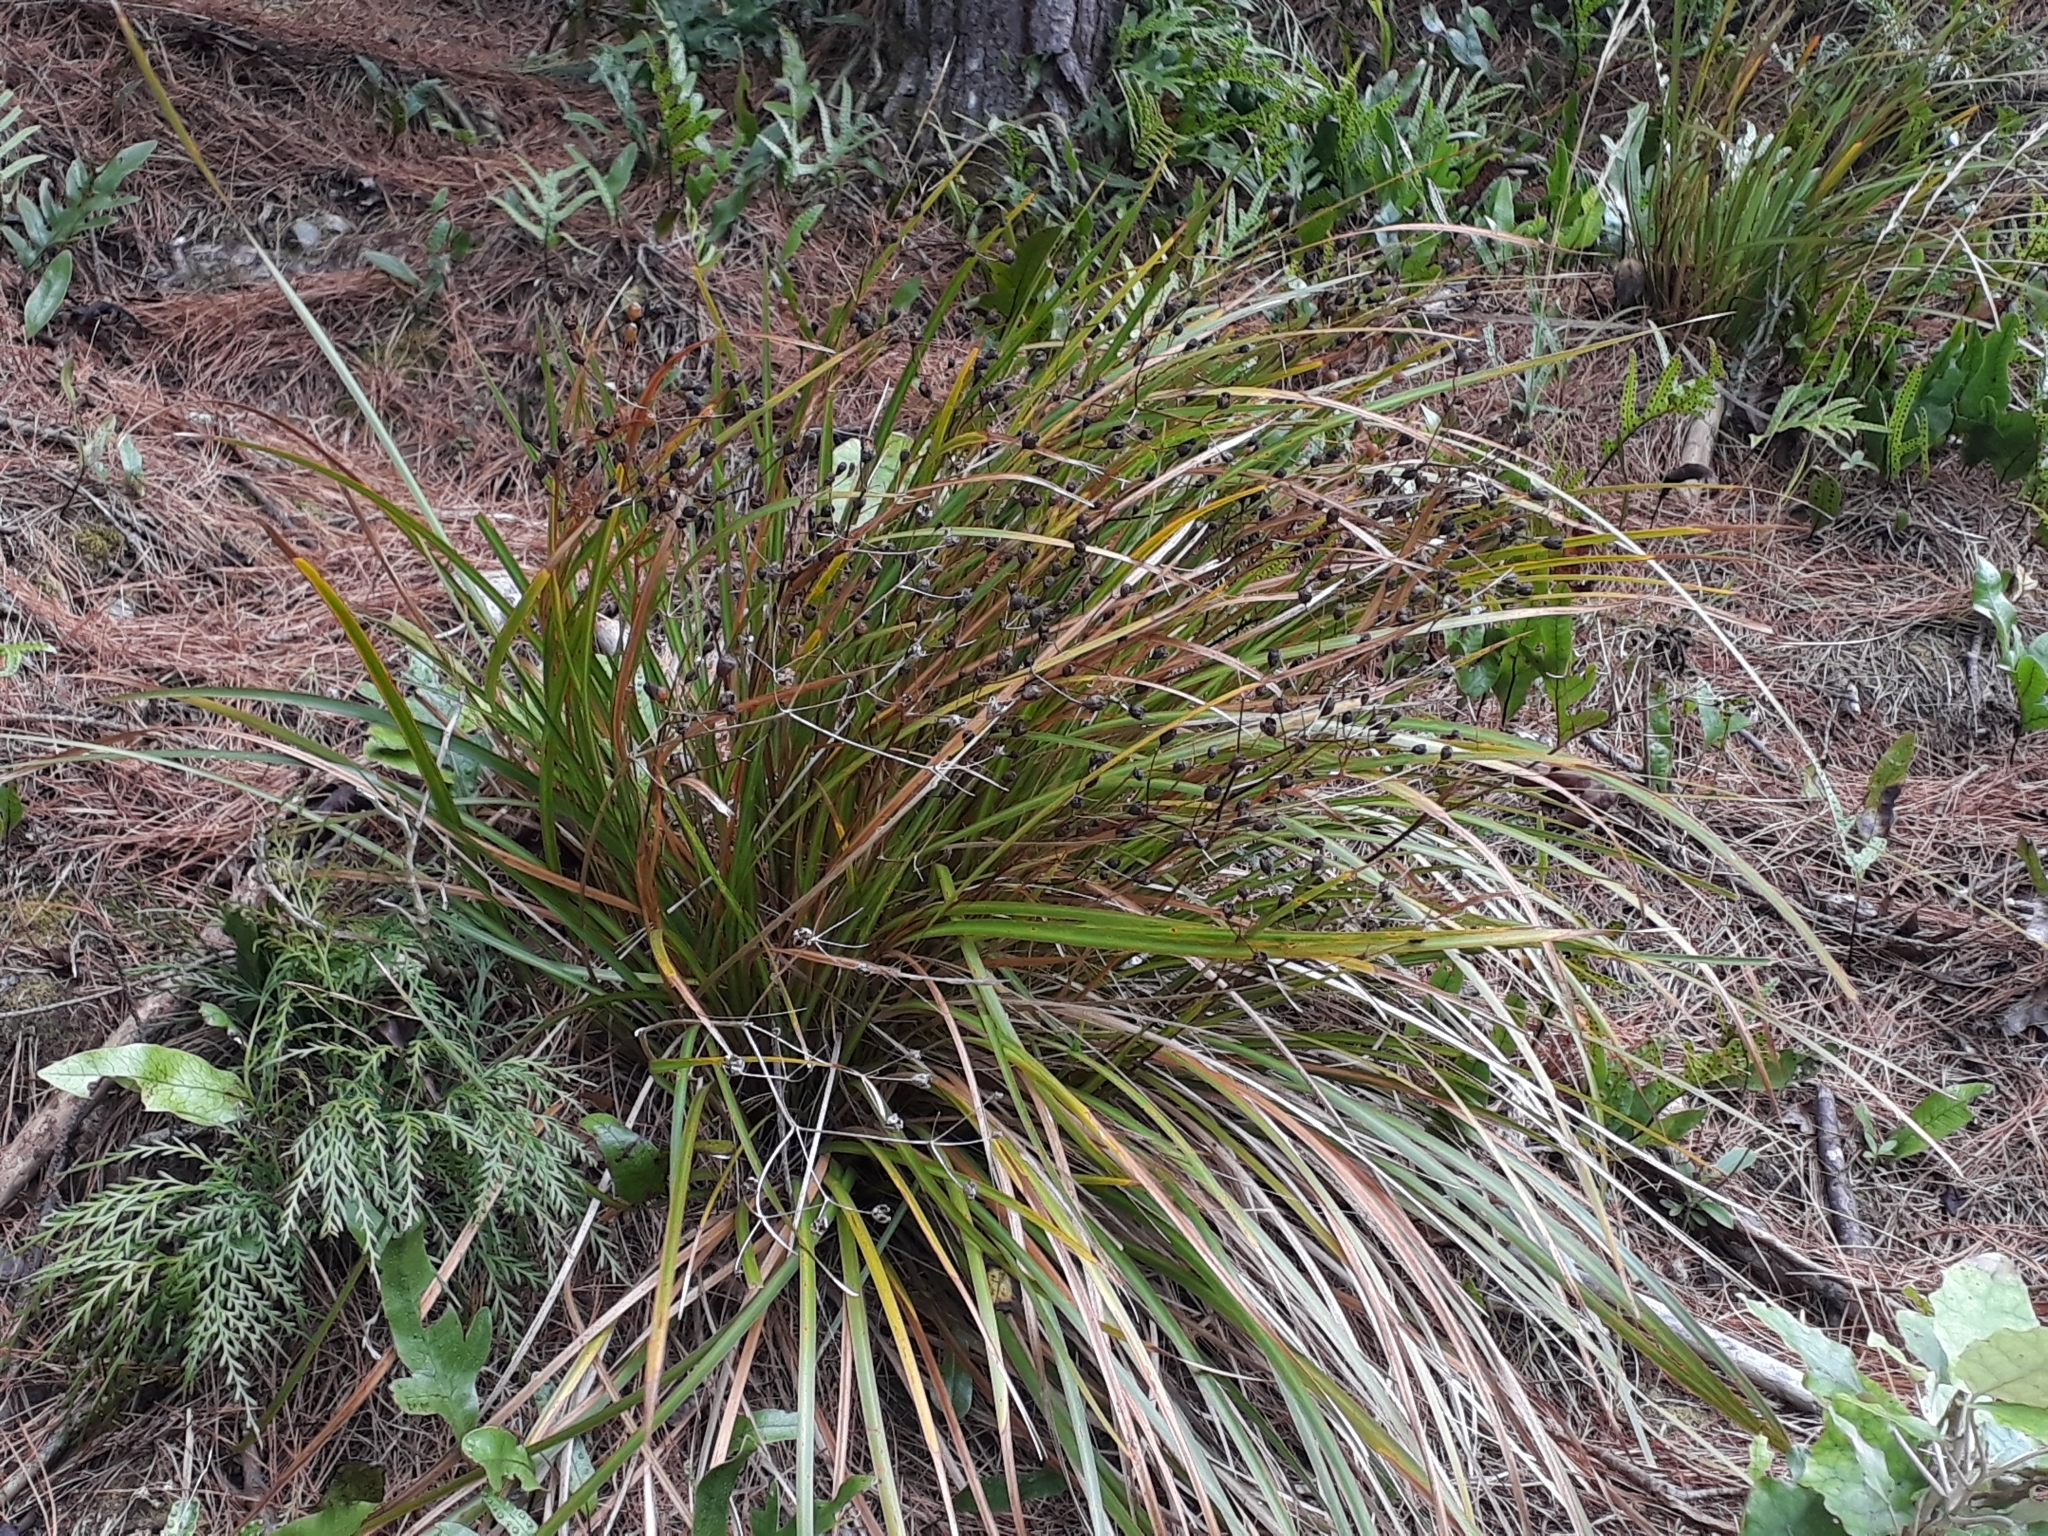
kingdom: Plantae
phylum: Tracheophyta
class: Liliopsida
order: Asparagales
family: Iridaceae
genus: Libertia
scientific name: Libertia grandiflora
